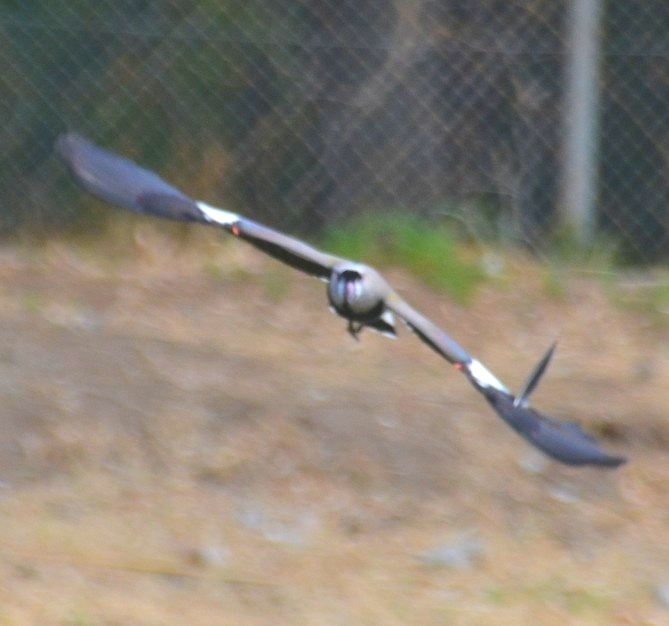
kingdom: Animalia
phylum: Chordata
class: Aves
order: Charadriiformes
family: Charadriidae
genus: Vanellus
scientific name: Vanellus chilensis
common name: Southern lapwing
